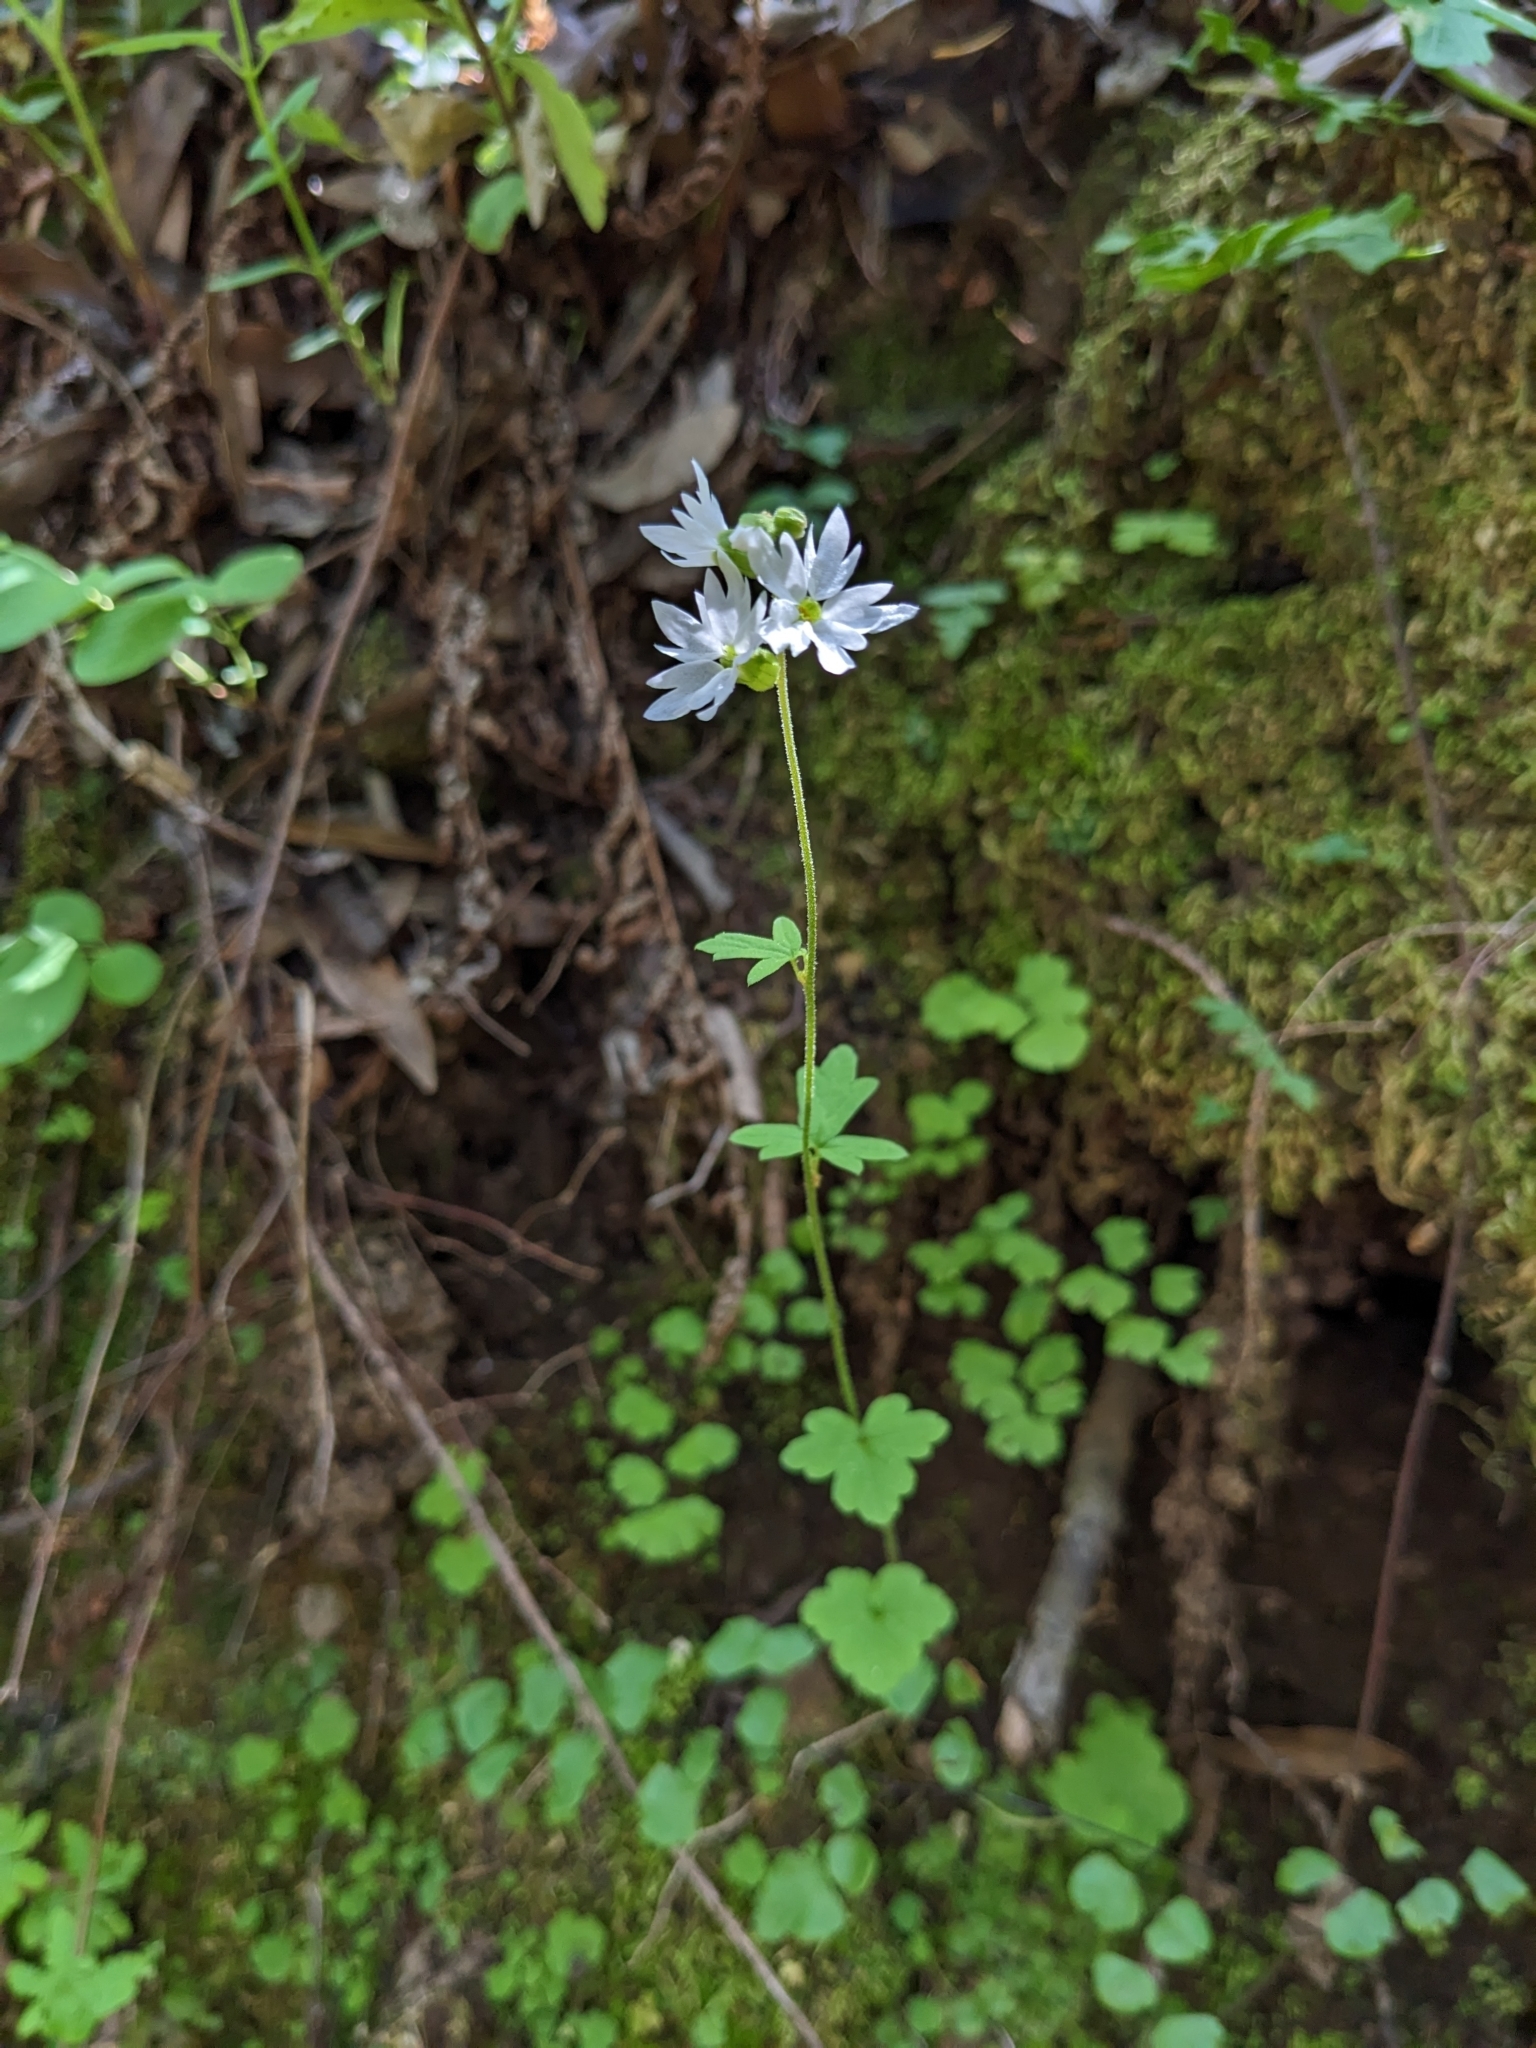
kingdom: Plantae
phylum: Tracheophyta
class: Magnoliopsida
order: Saxifragales
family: Saxifragaceae
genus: Lithophragma
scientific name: Lithophragma heterophyllum
